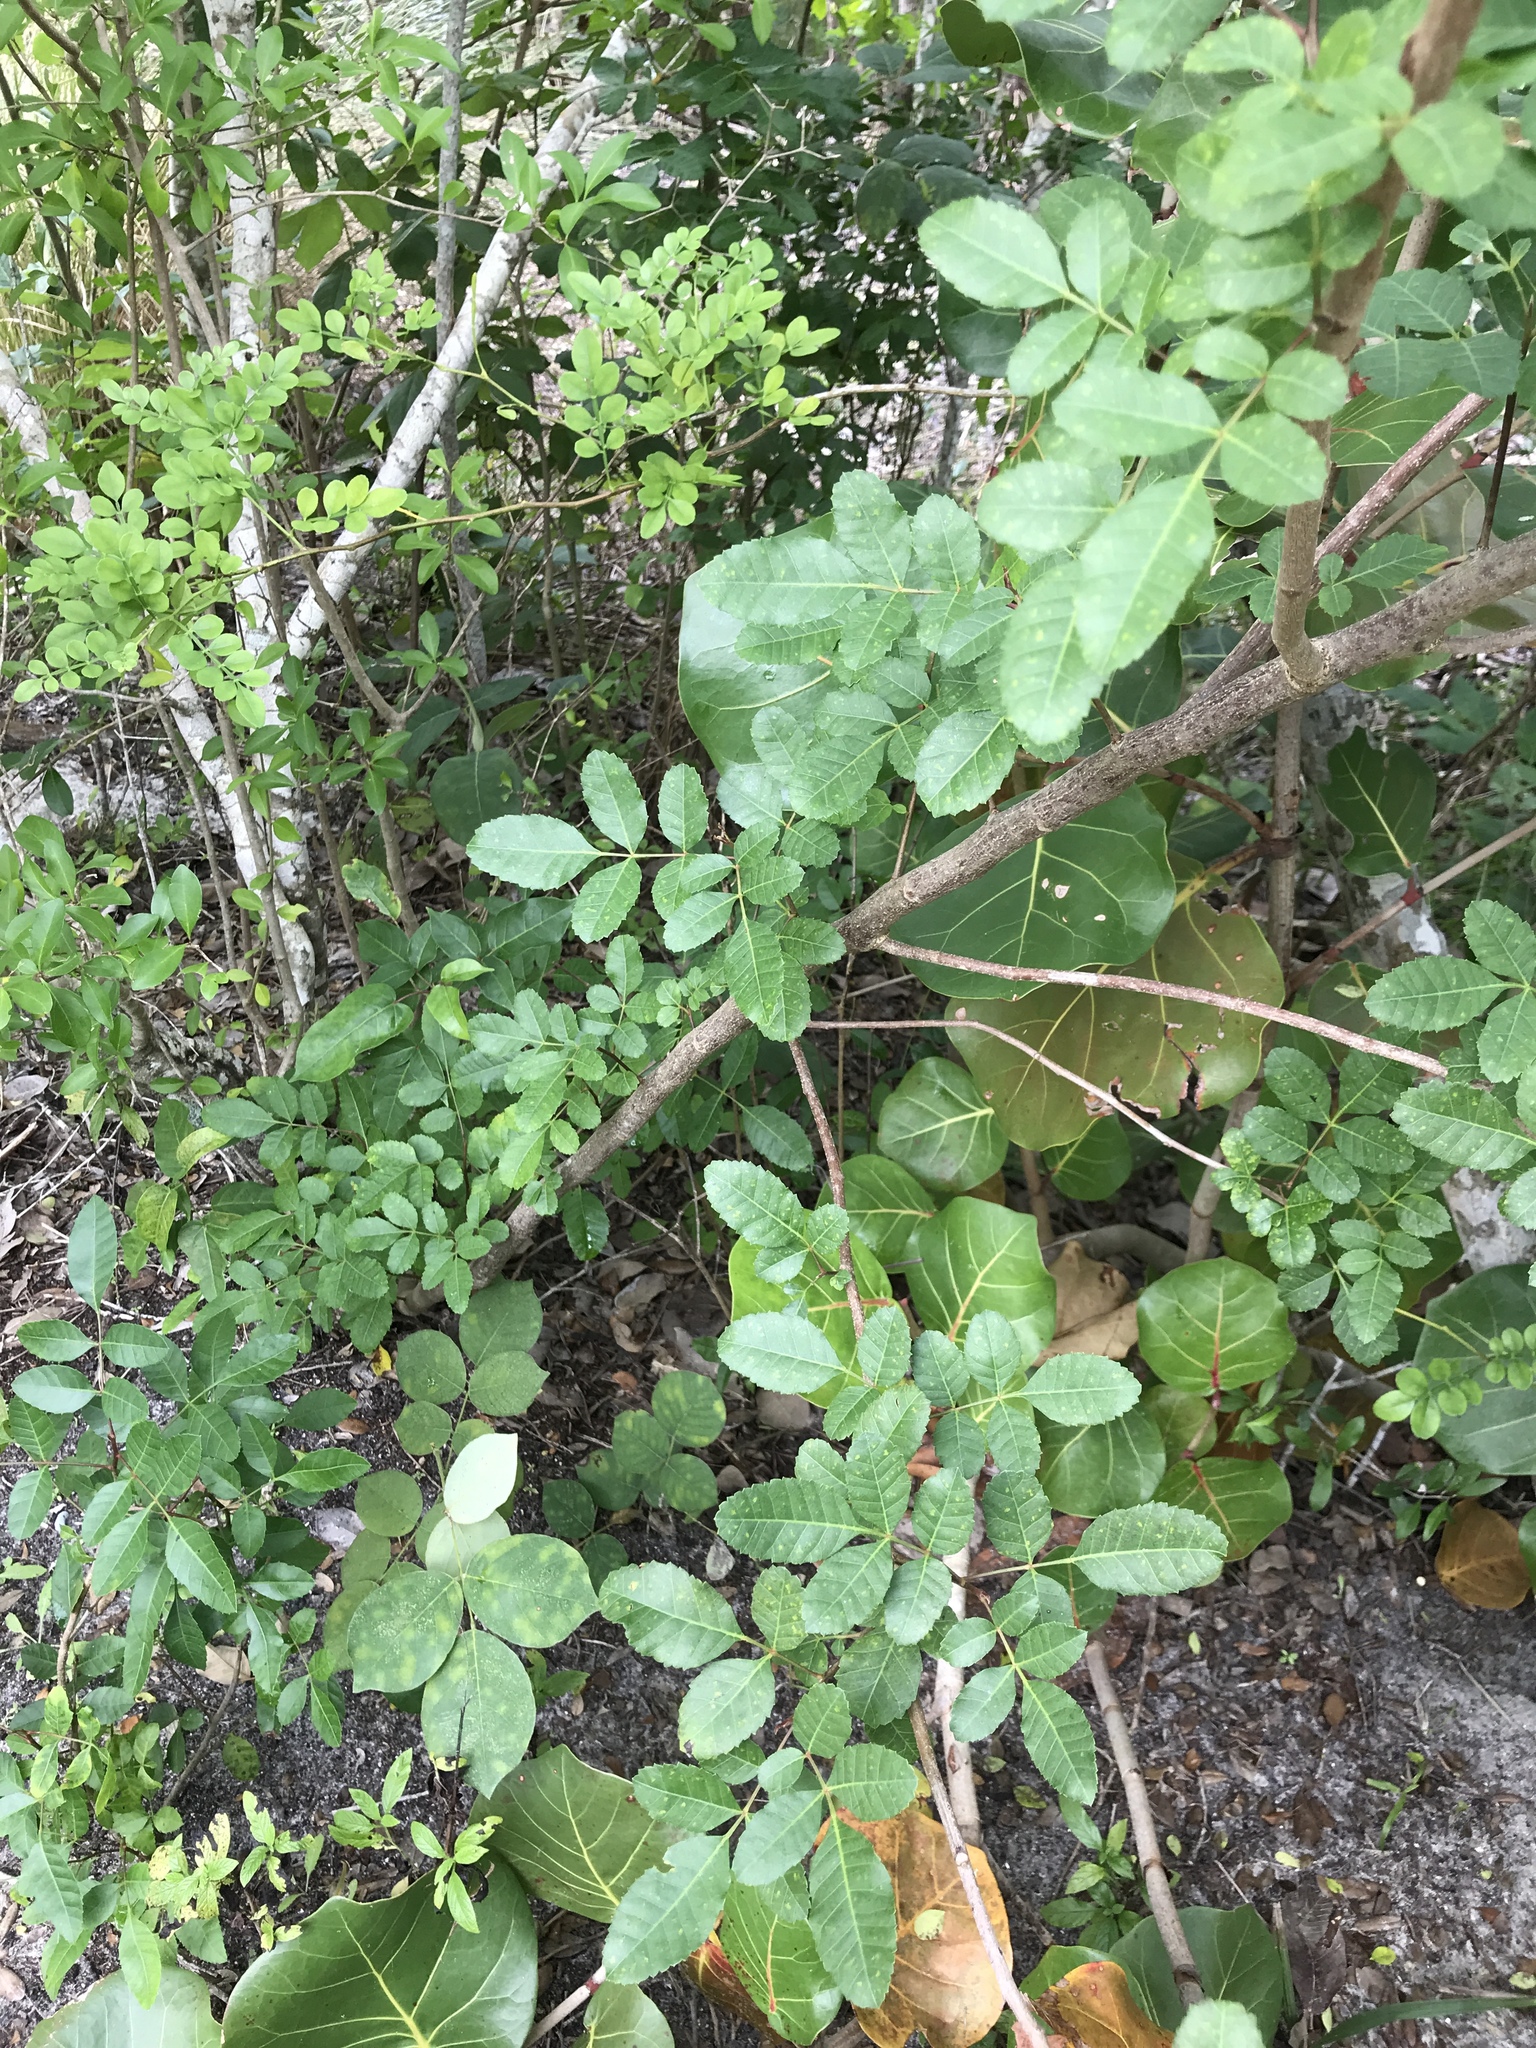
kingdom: Plantae
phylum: Tracheophyta
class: Magnoliopsida
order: Sapindales
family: Anacardiaceae
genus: Schinus
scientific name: Schinus terebinthifolia
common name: Brazilian peppertree
